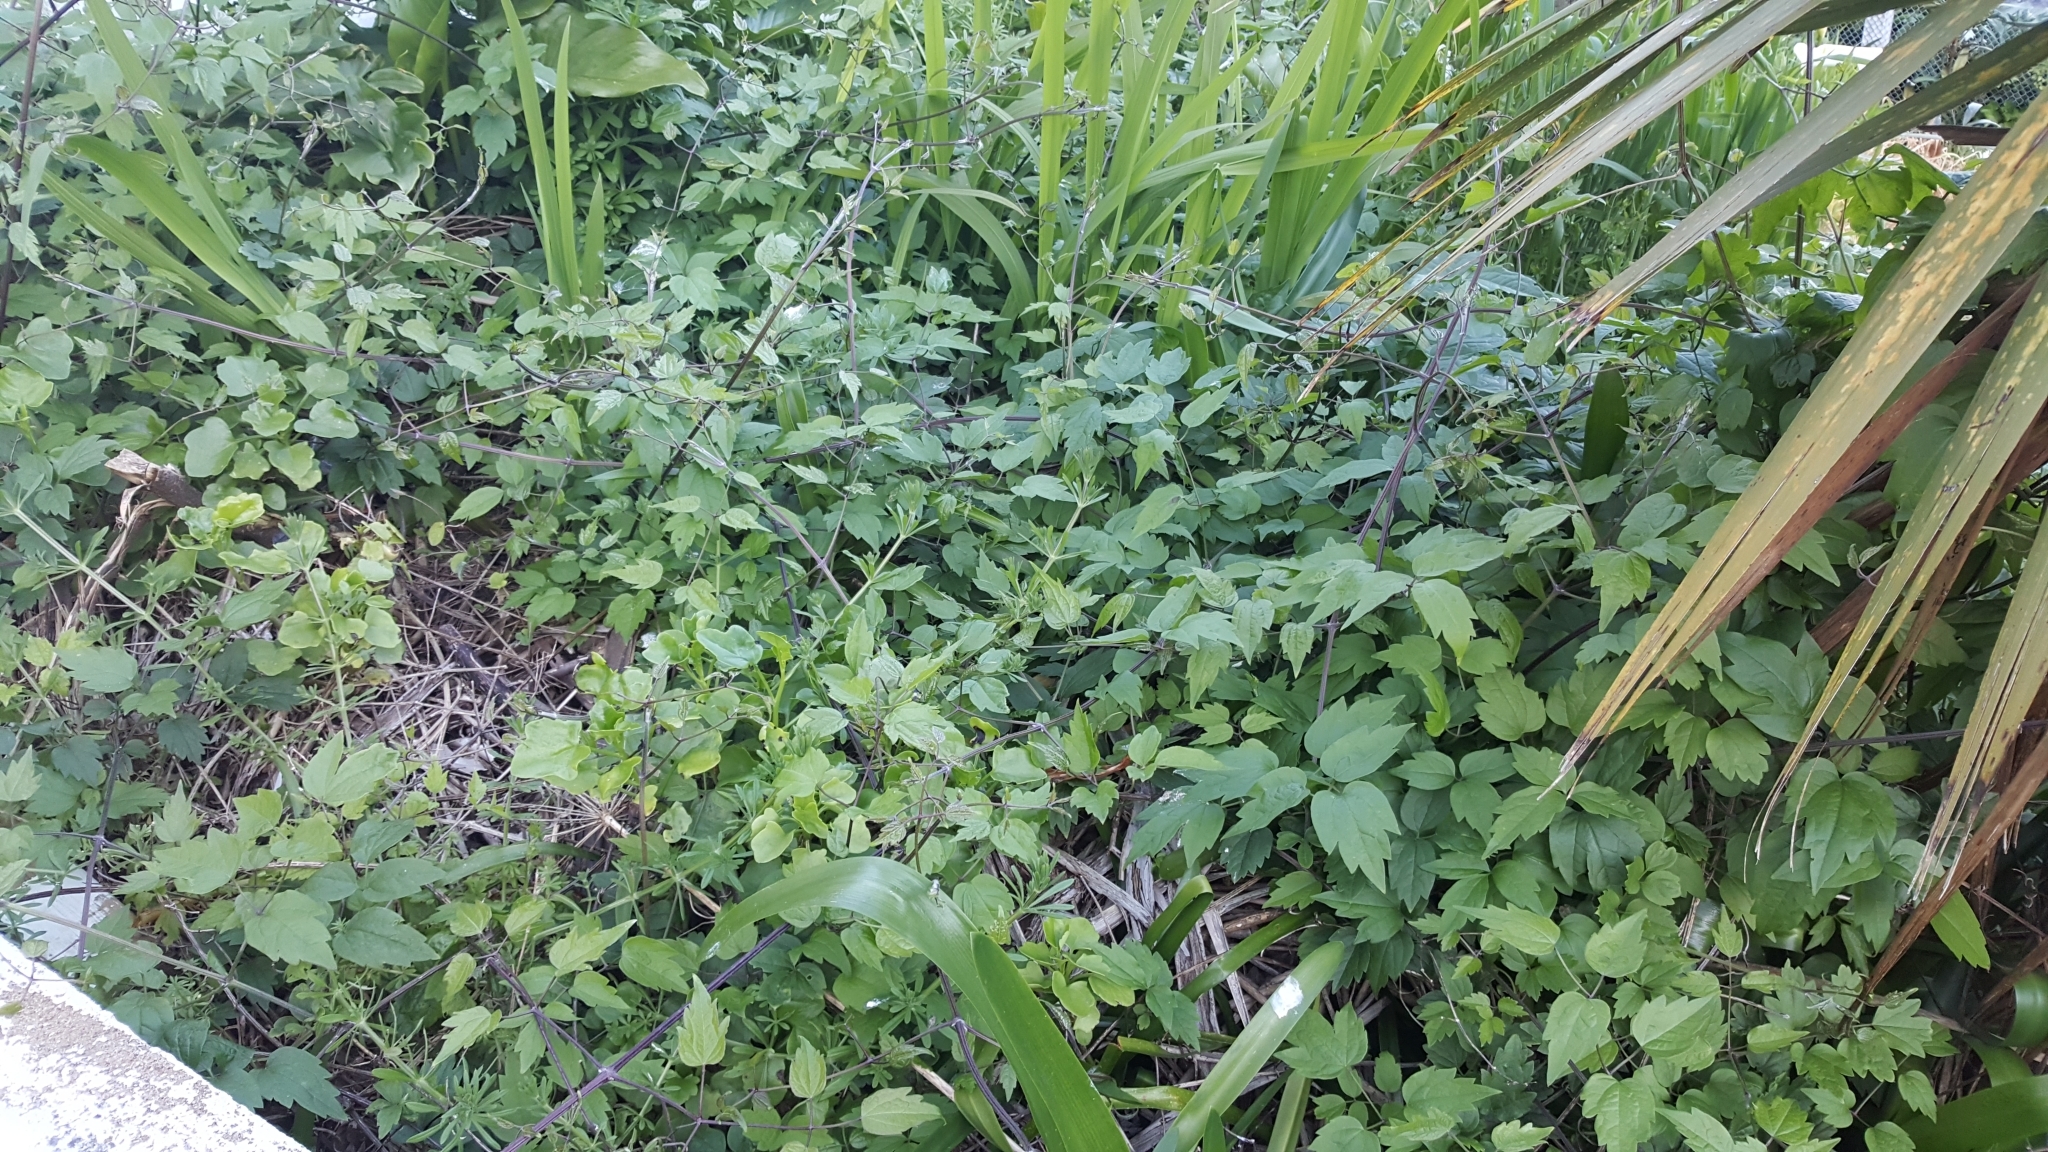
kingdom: Plantae
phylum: Tracheophyta
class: Magnoliopsida
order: Ranunculales
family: Ranunculaceae
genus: Clematis
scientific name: Clematis vitalba
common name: Evergreen clematis
